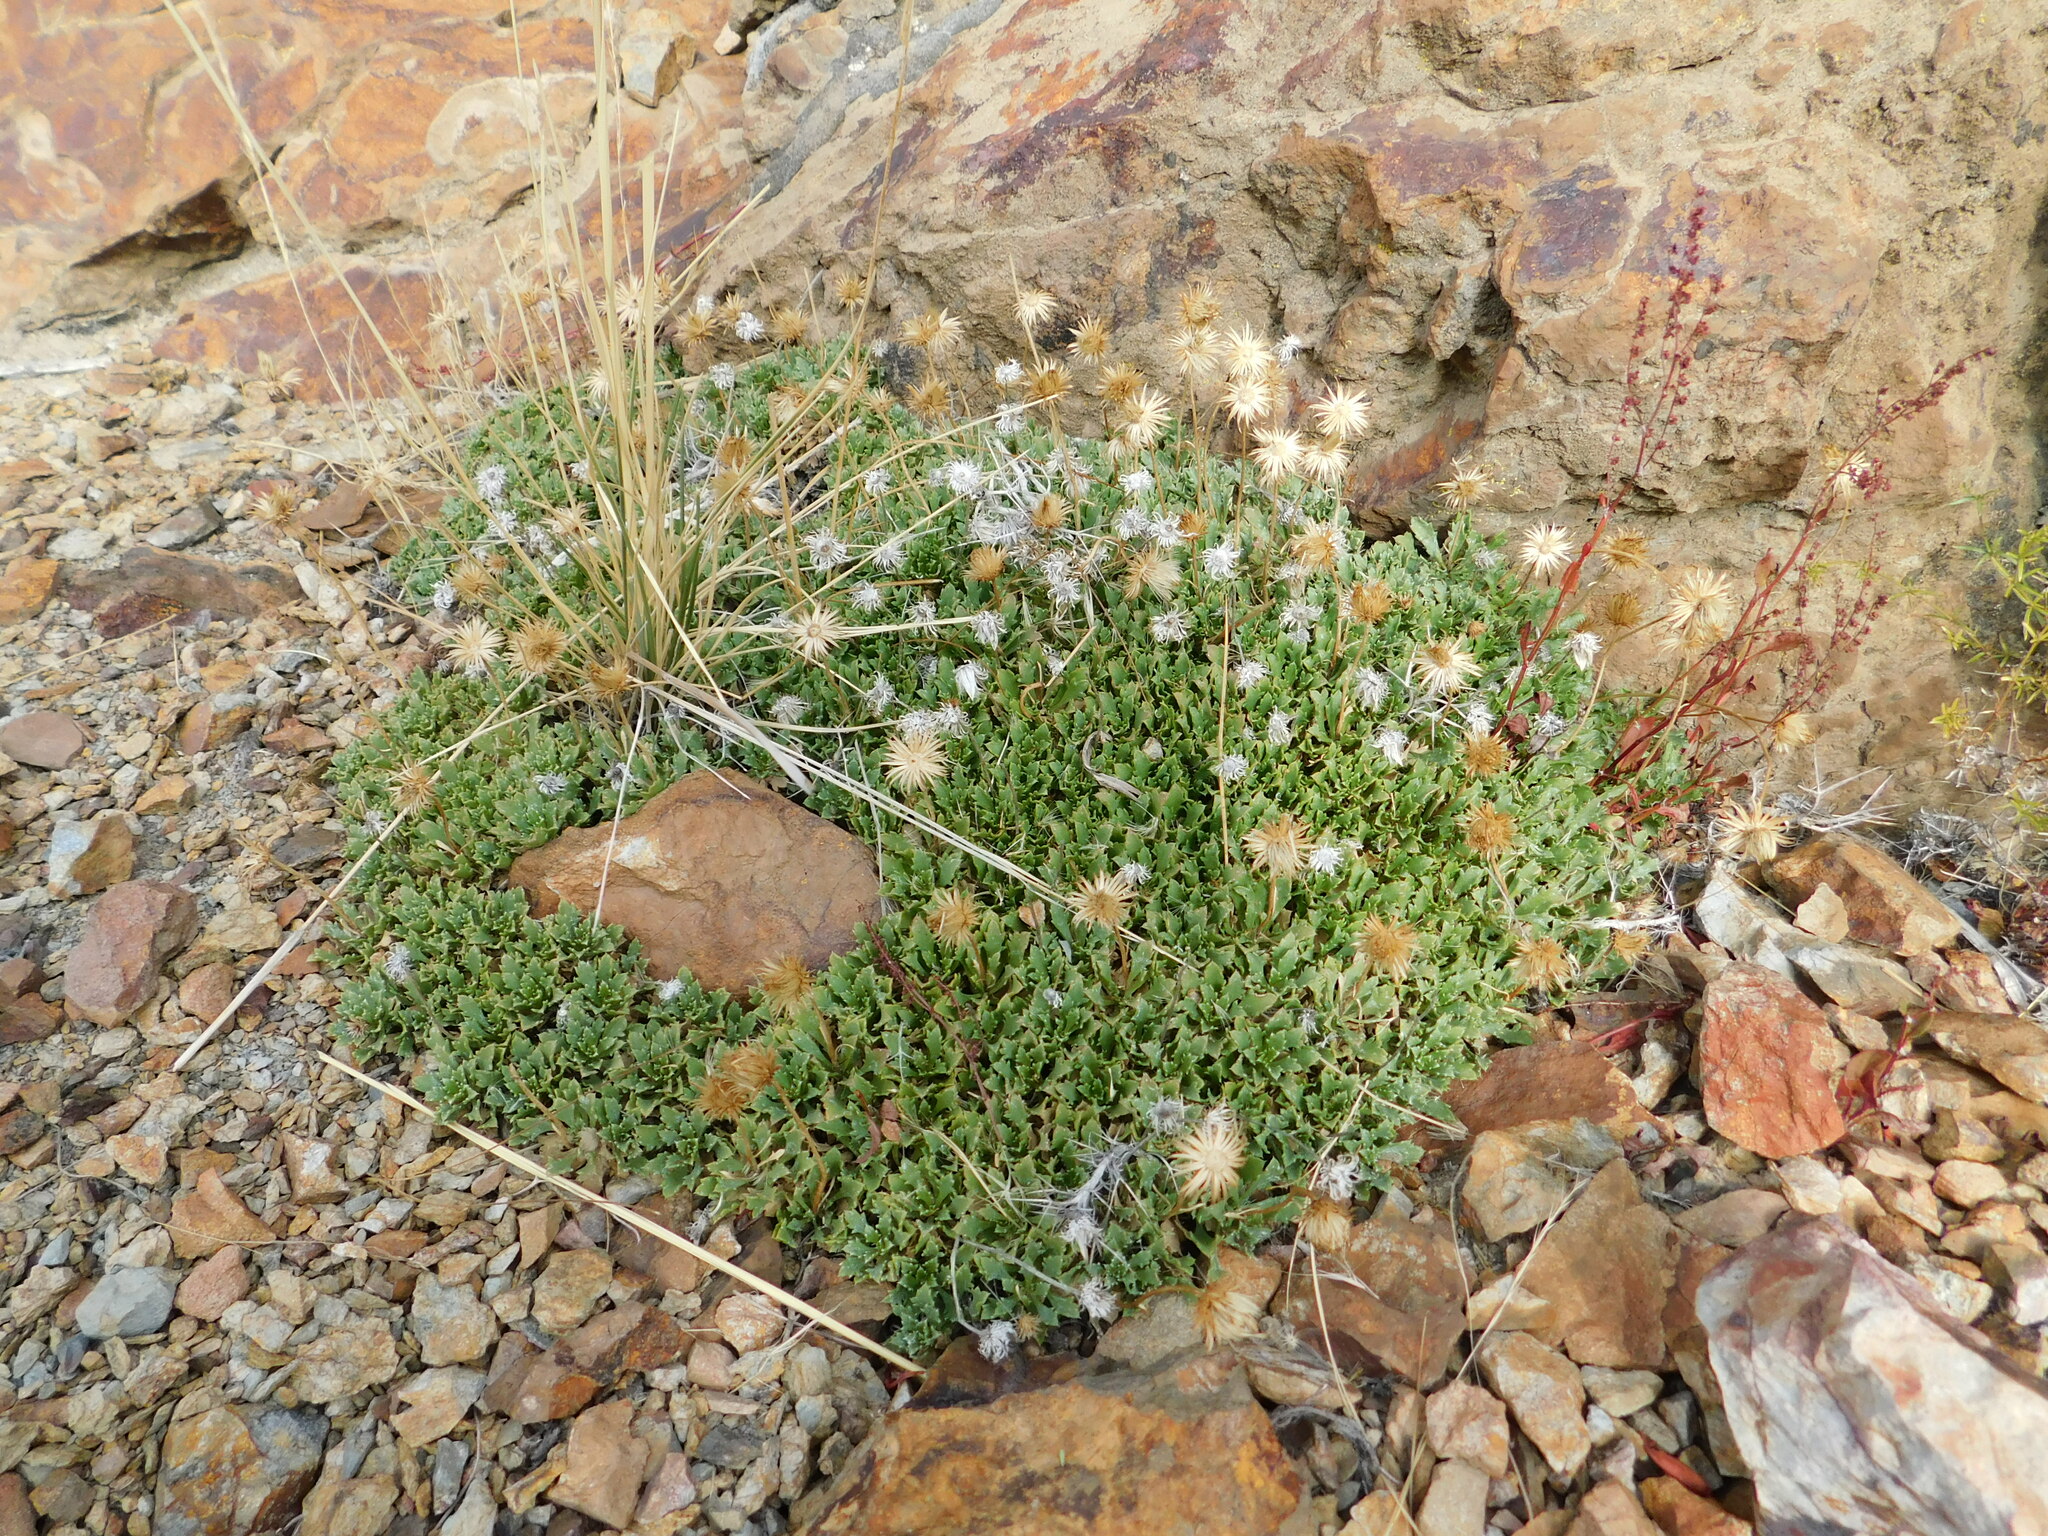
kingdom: Plantae
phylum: Tracheophyta
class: Magnoliopsida
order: Asterales
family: Asteraceae
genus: Grindelia
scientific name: Grindelia mendocina
